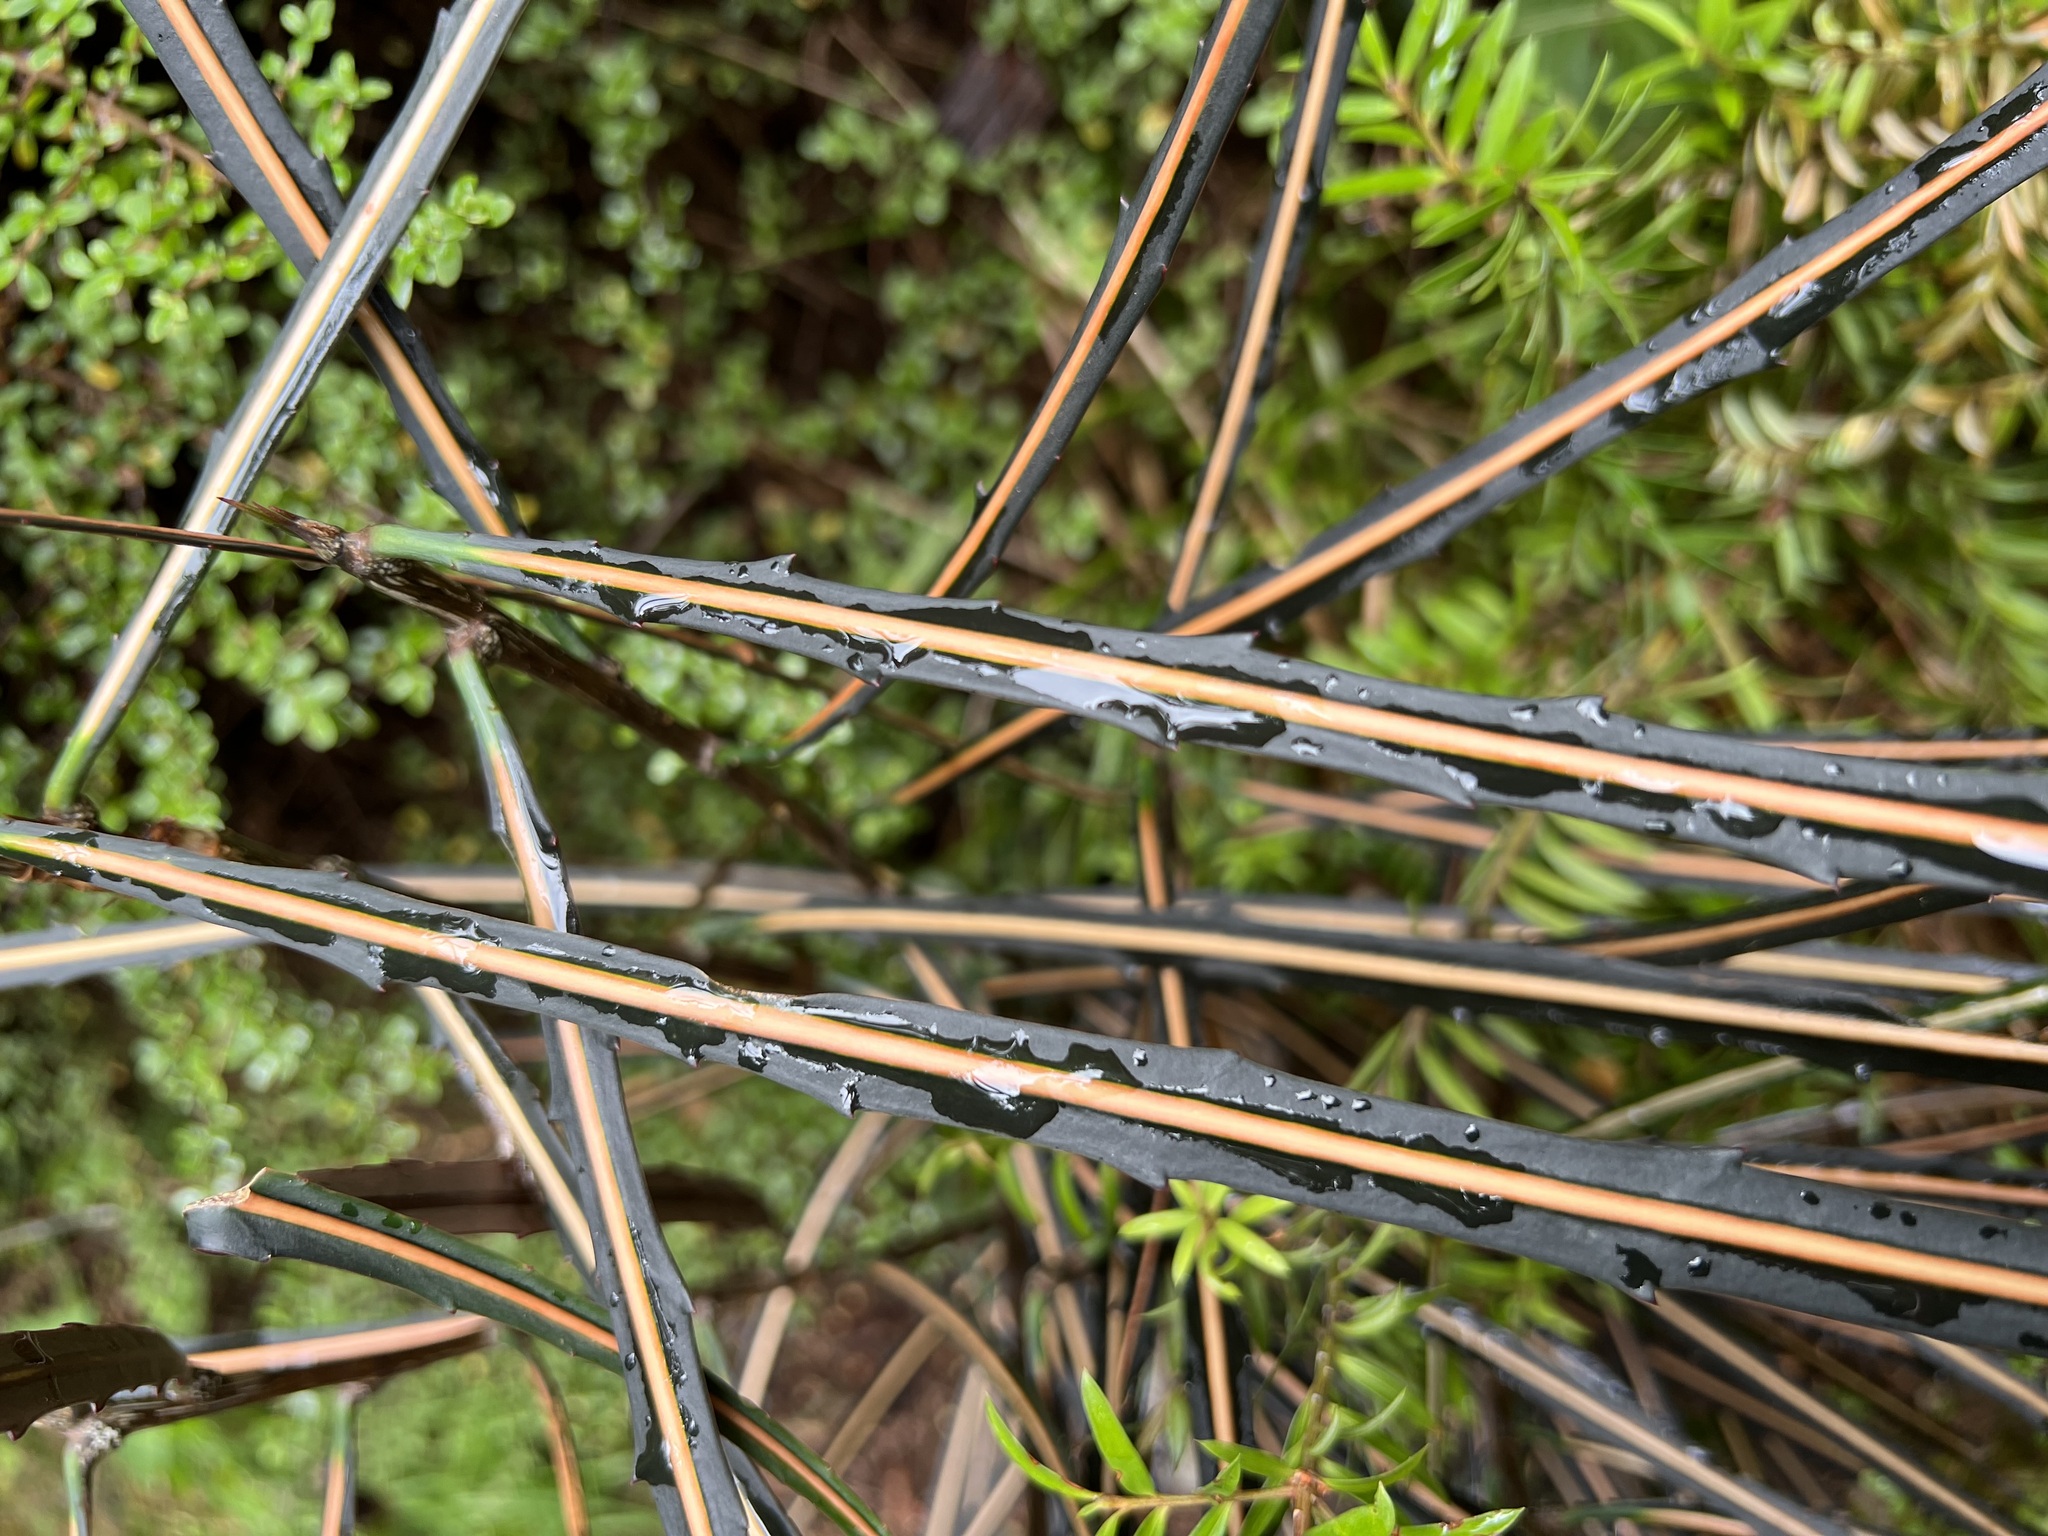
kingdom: Plantae
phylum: Tracheophyta
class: Magnoliopsida
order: Apiales
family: Araliaceae
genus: Pseudopanax
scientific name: Pseudopanax crassifolius
